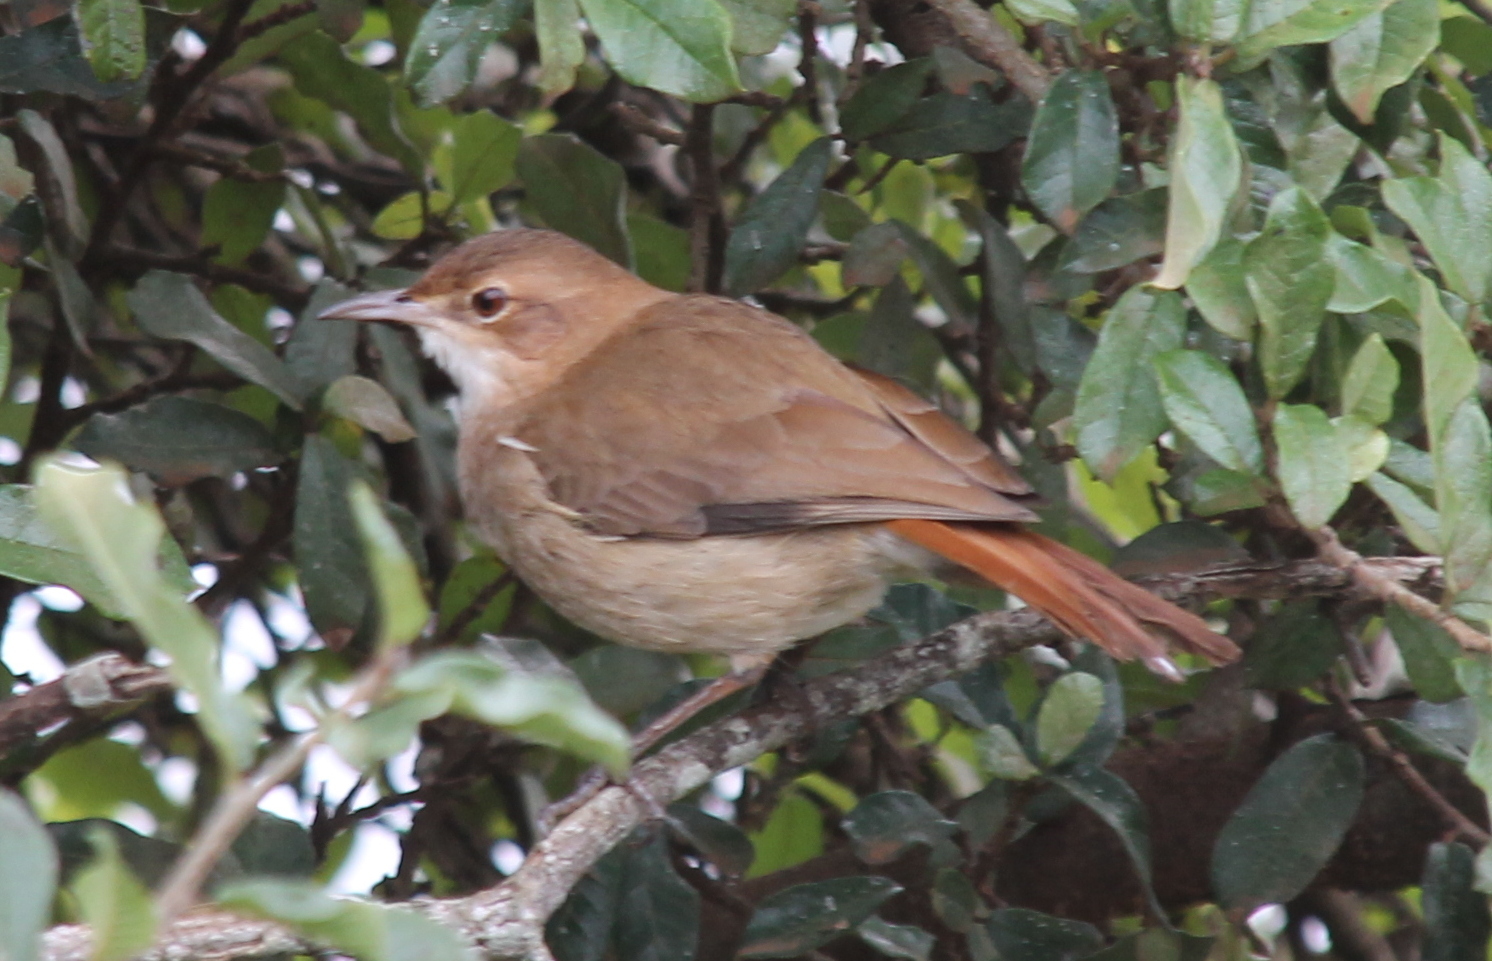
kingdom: Animalia
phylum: Chordata
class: Aves
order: Passeriformes
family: Furnariidae
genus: Furnarius
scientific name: Furnarius rufus
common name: Rufous hornero
